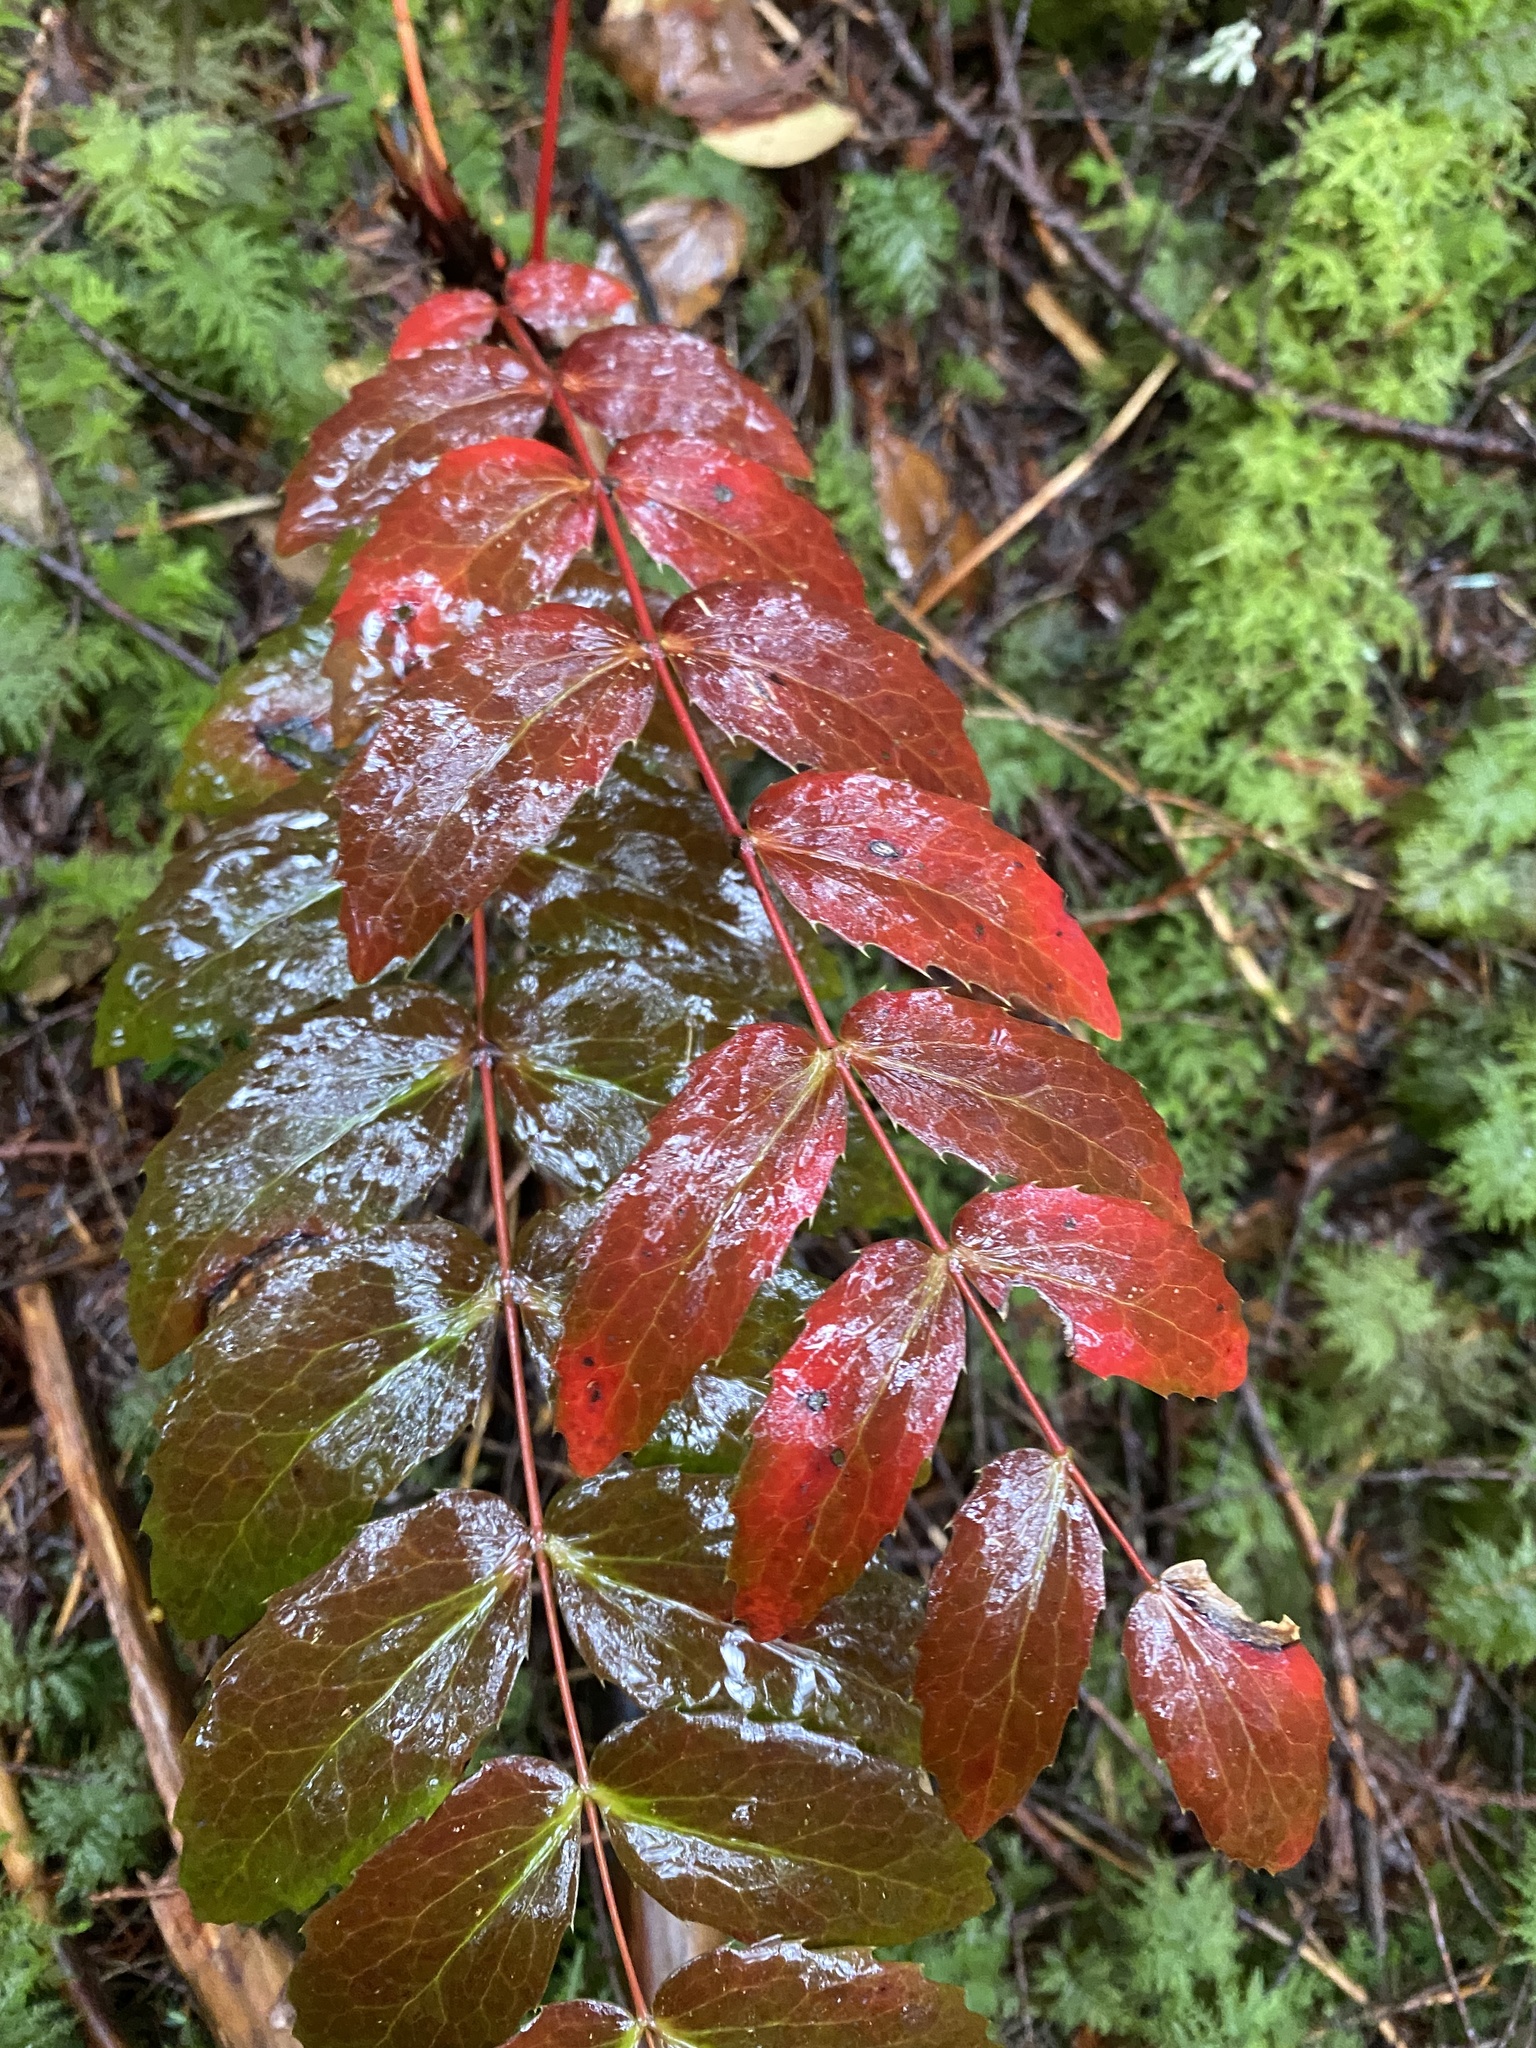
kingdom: Plantae
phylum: Tracheophyta
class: Magnoliopsida
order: Ranunculales
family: Berberidaceae
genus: Mahonia
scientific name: Mahonia nervosa
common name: Cascade oregon-grape
